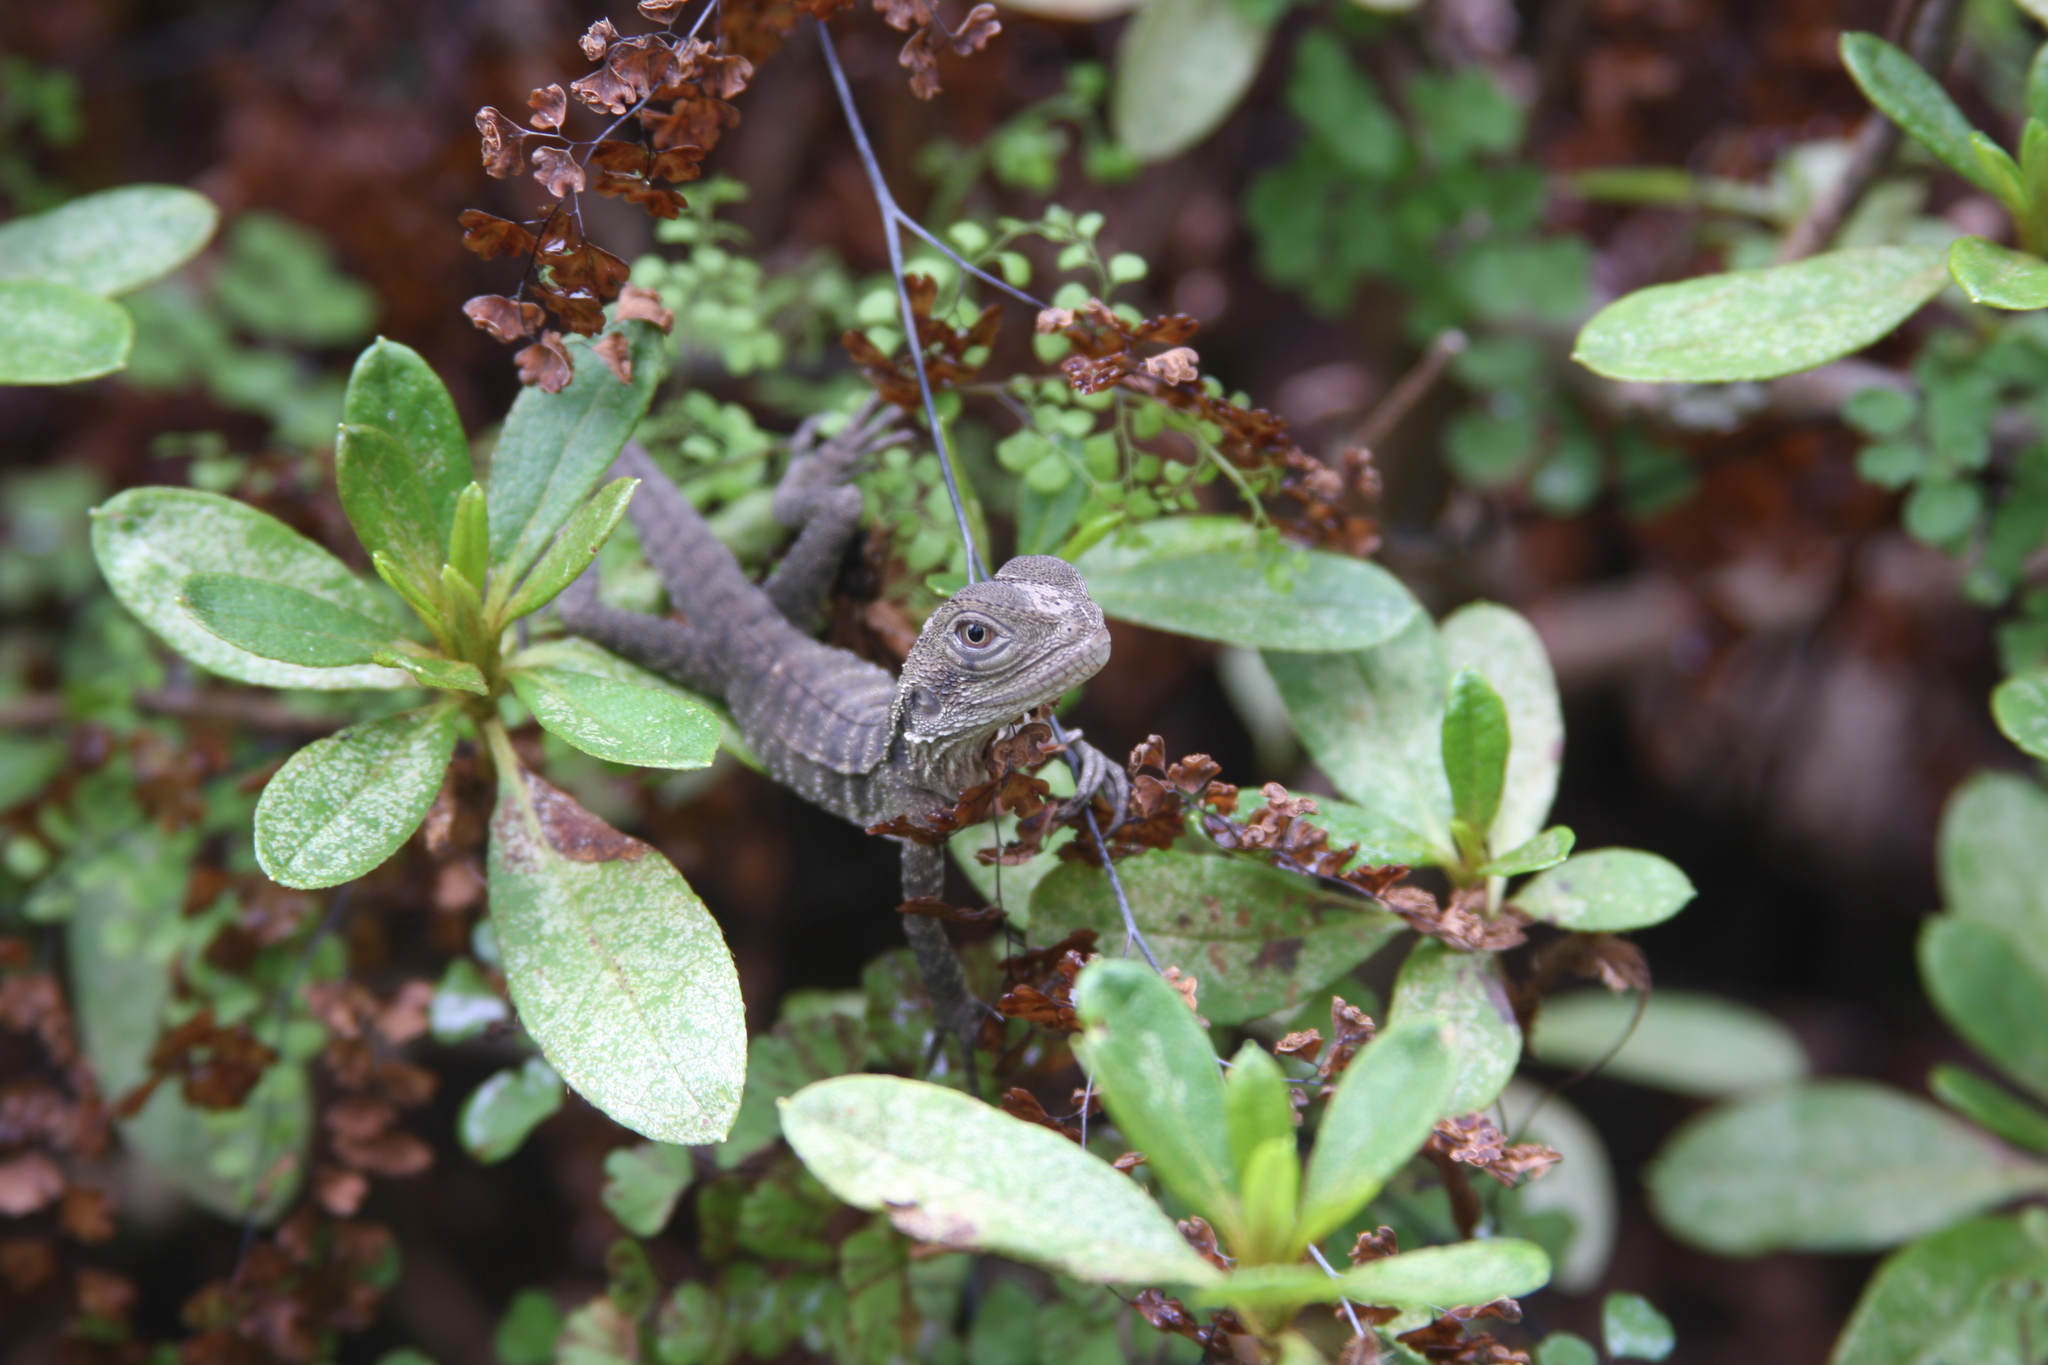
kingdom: Animalia
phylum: Chordata
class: Squamata
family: Agamidae
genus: Intellagama
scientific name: Intellagama lesueurii
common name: Eastern water dragon
